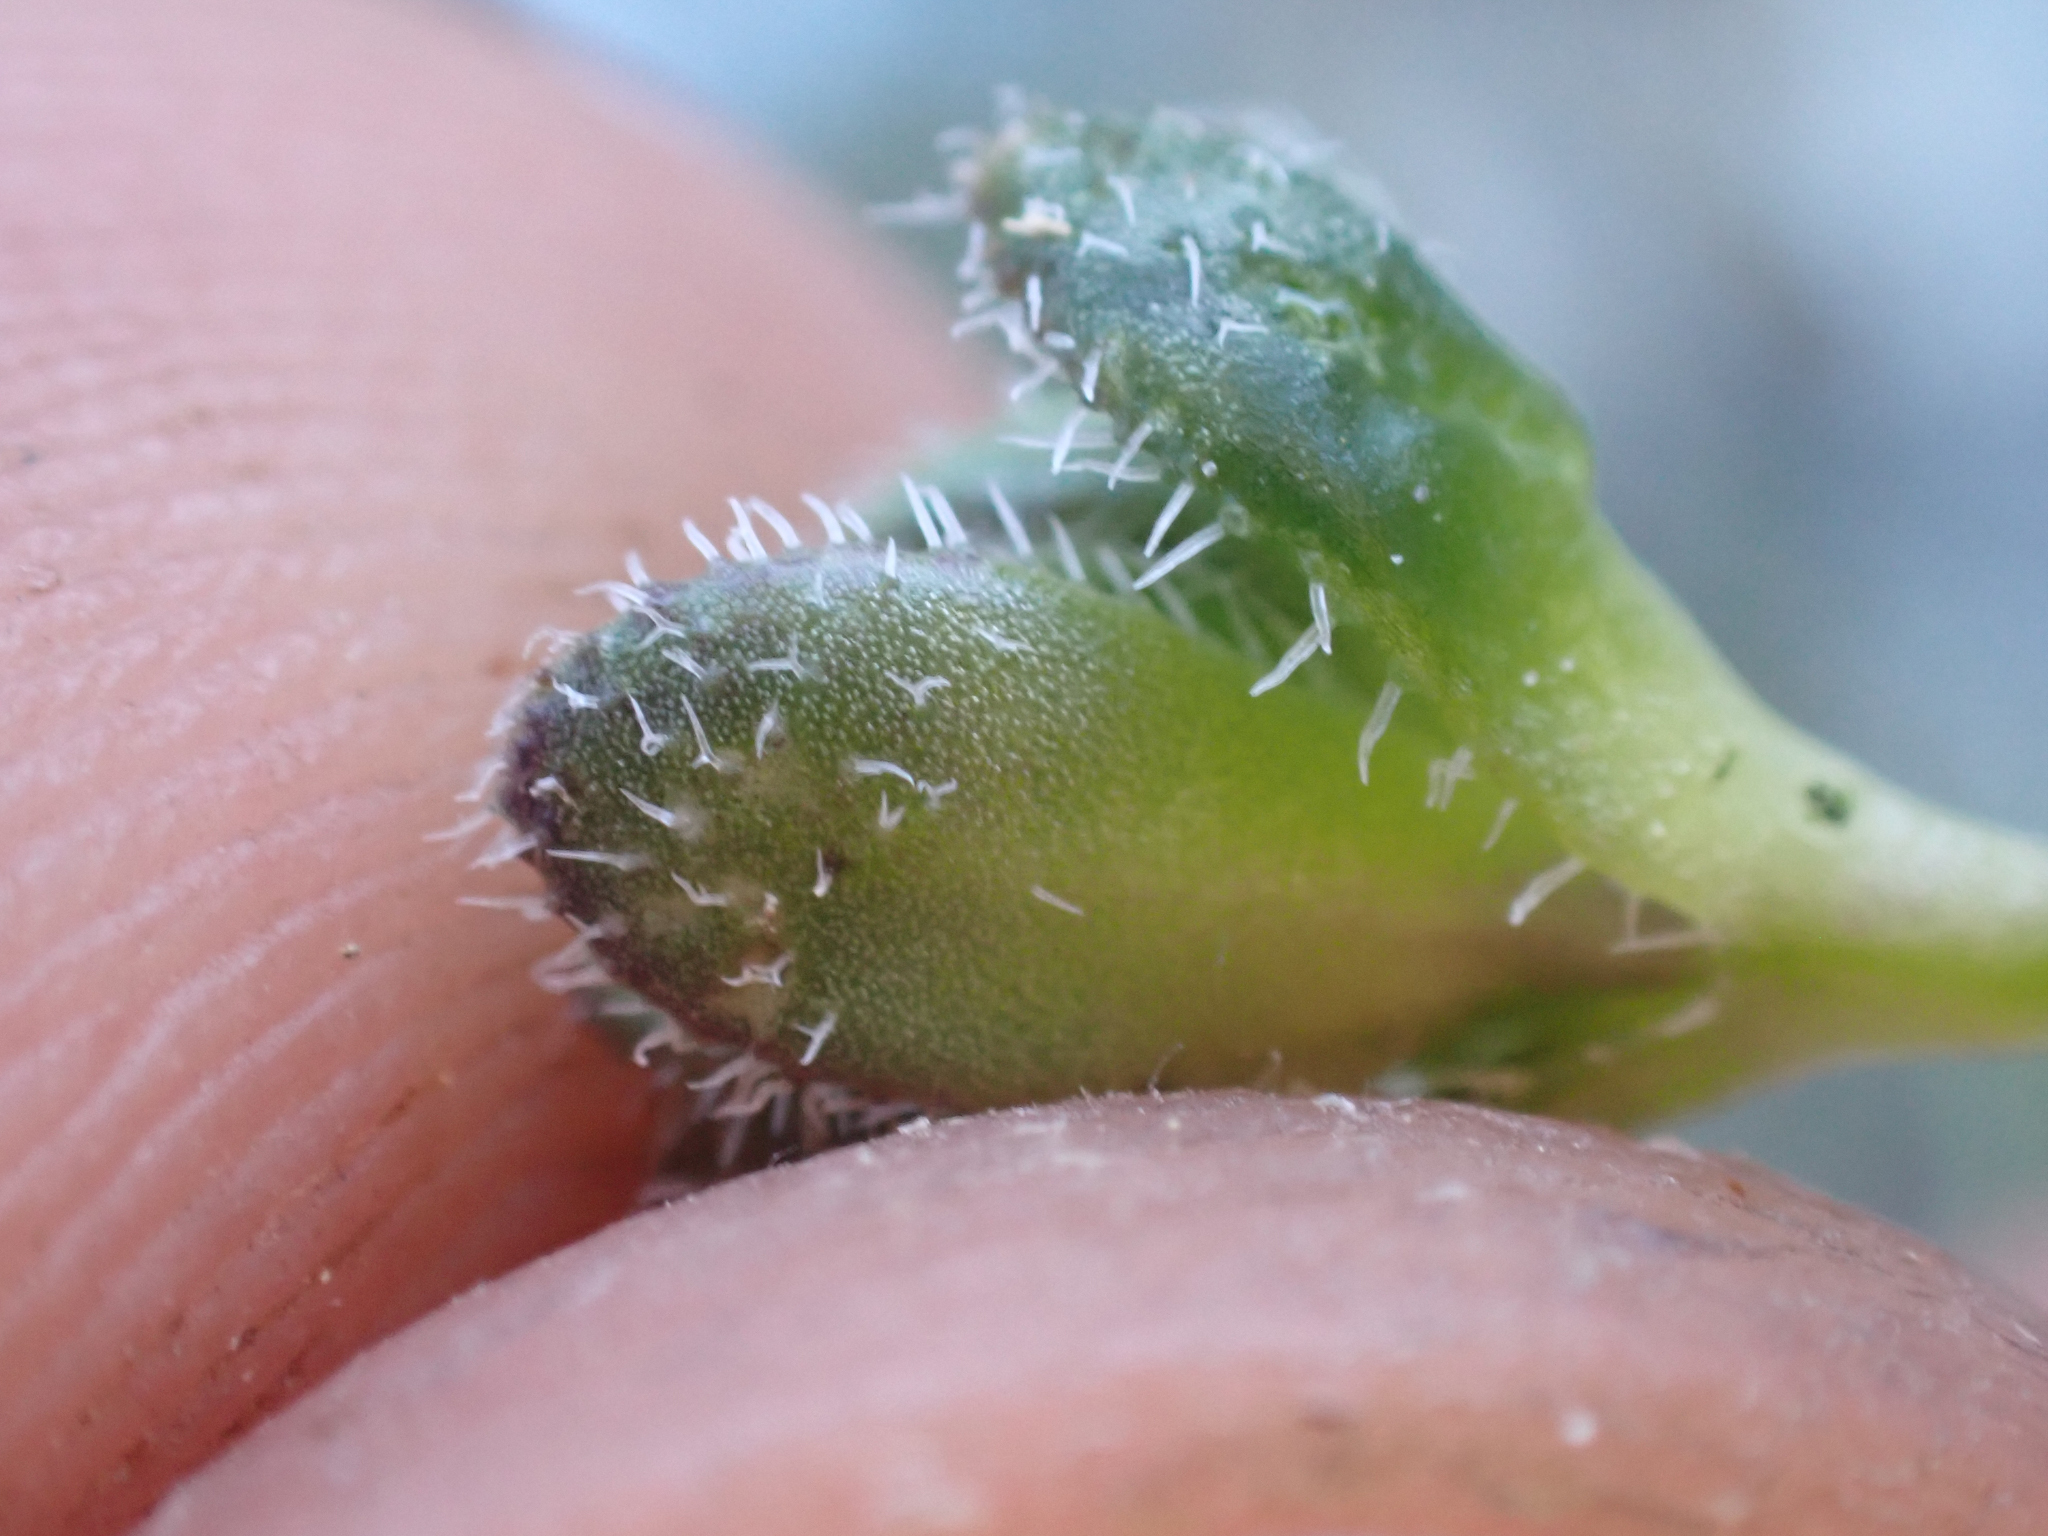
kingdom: Plantae
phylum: Tracheophyta
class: Magnoliopsida
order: Brassicales
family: Brassicaceae
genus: Draba
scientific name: Draba lemmonii
